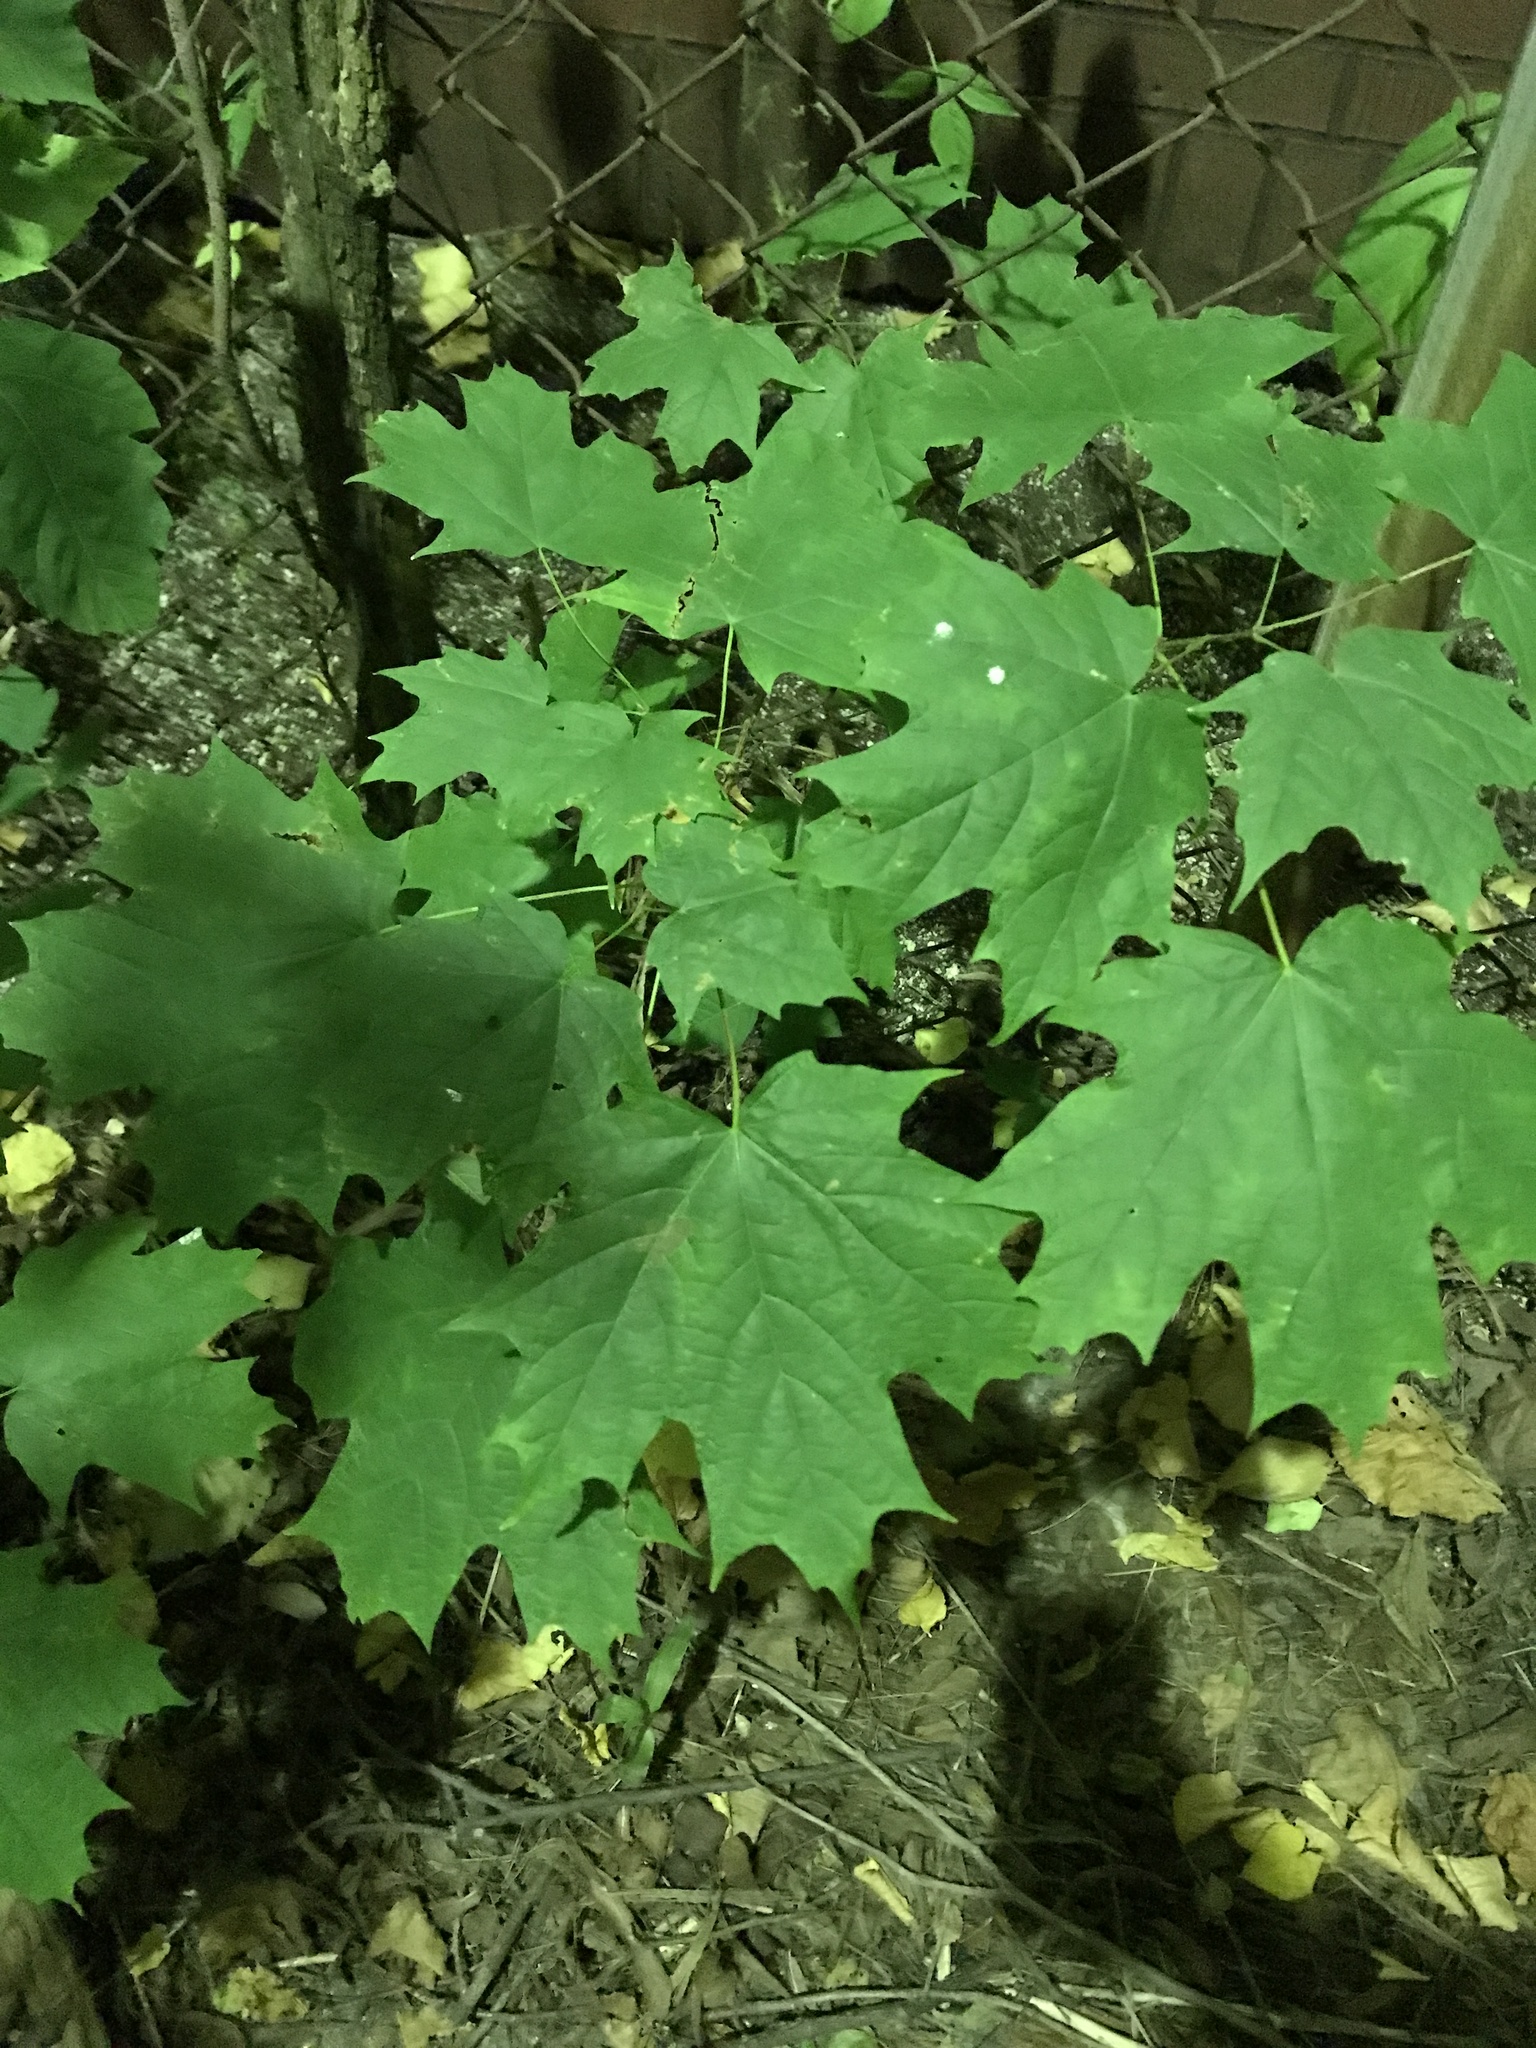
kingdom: Plantae
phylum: Tracheophyta
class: Magnoliopsida
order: Sapindales
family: Sapindaceae
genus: Acer
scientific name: Acer saccharum
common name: Sugar maple
